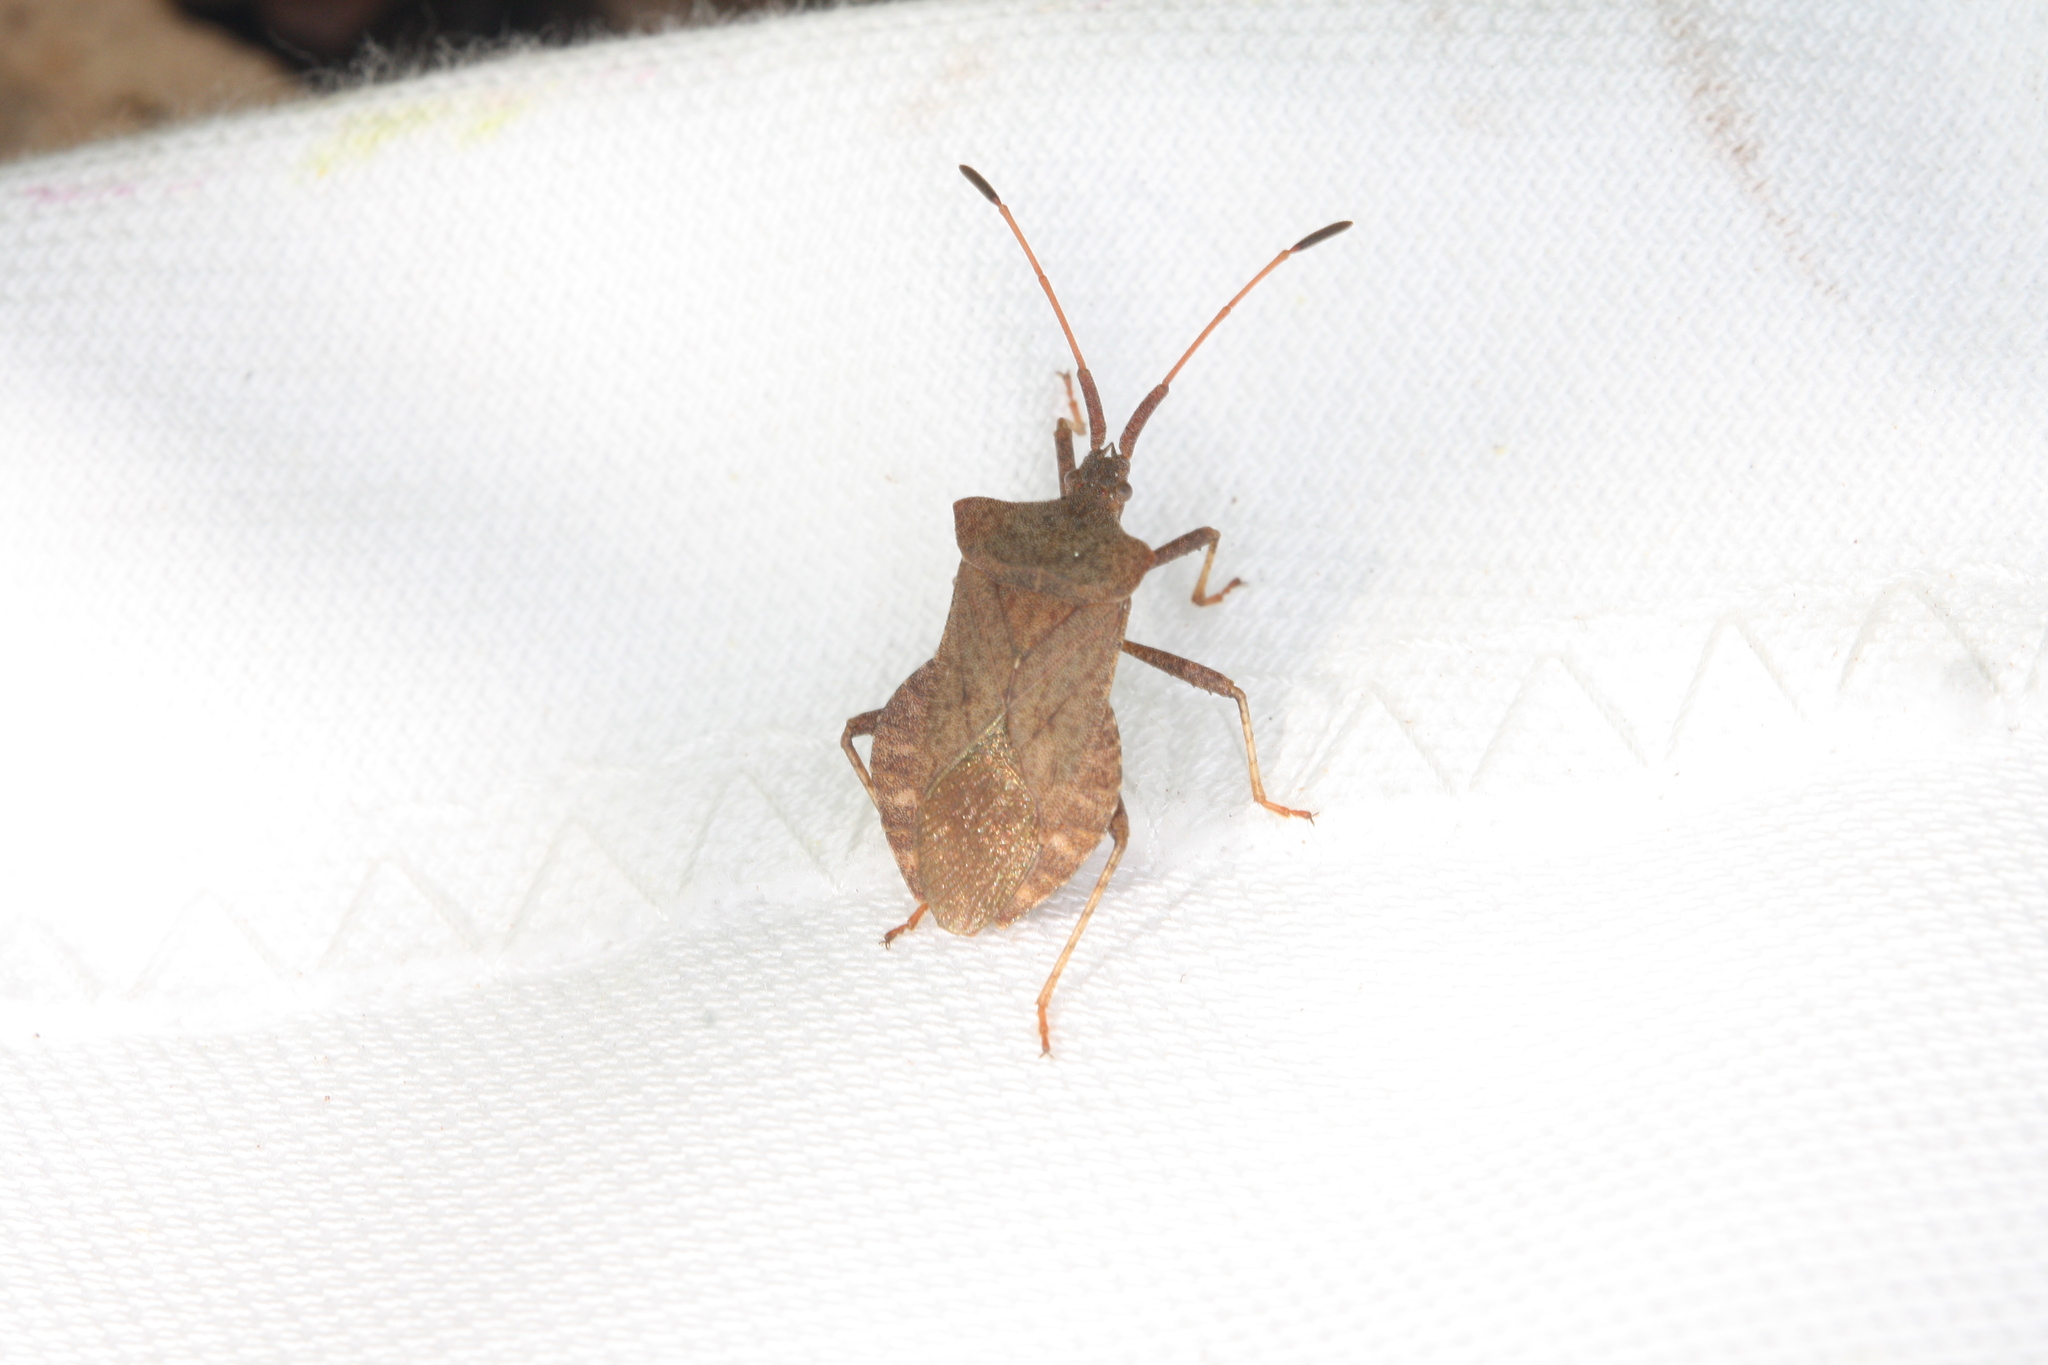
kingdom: Animalia
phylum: Arthropoda
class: Insecta
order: Hemiptera
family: Coreidae
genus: Coreus
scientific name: Coreus marginatus
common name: Dock bug
